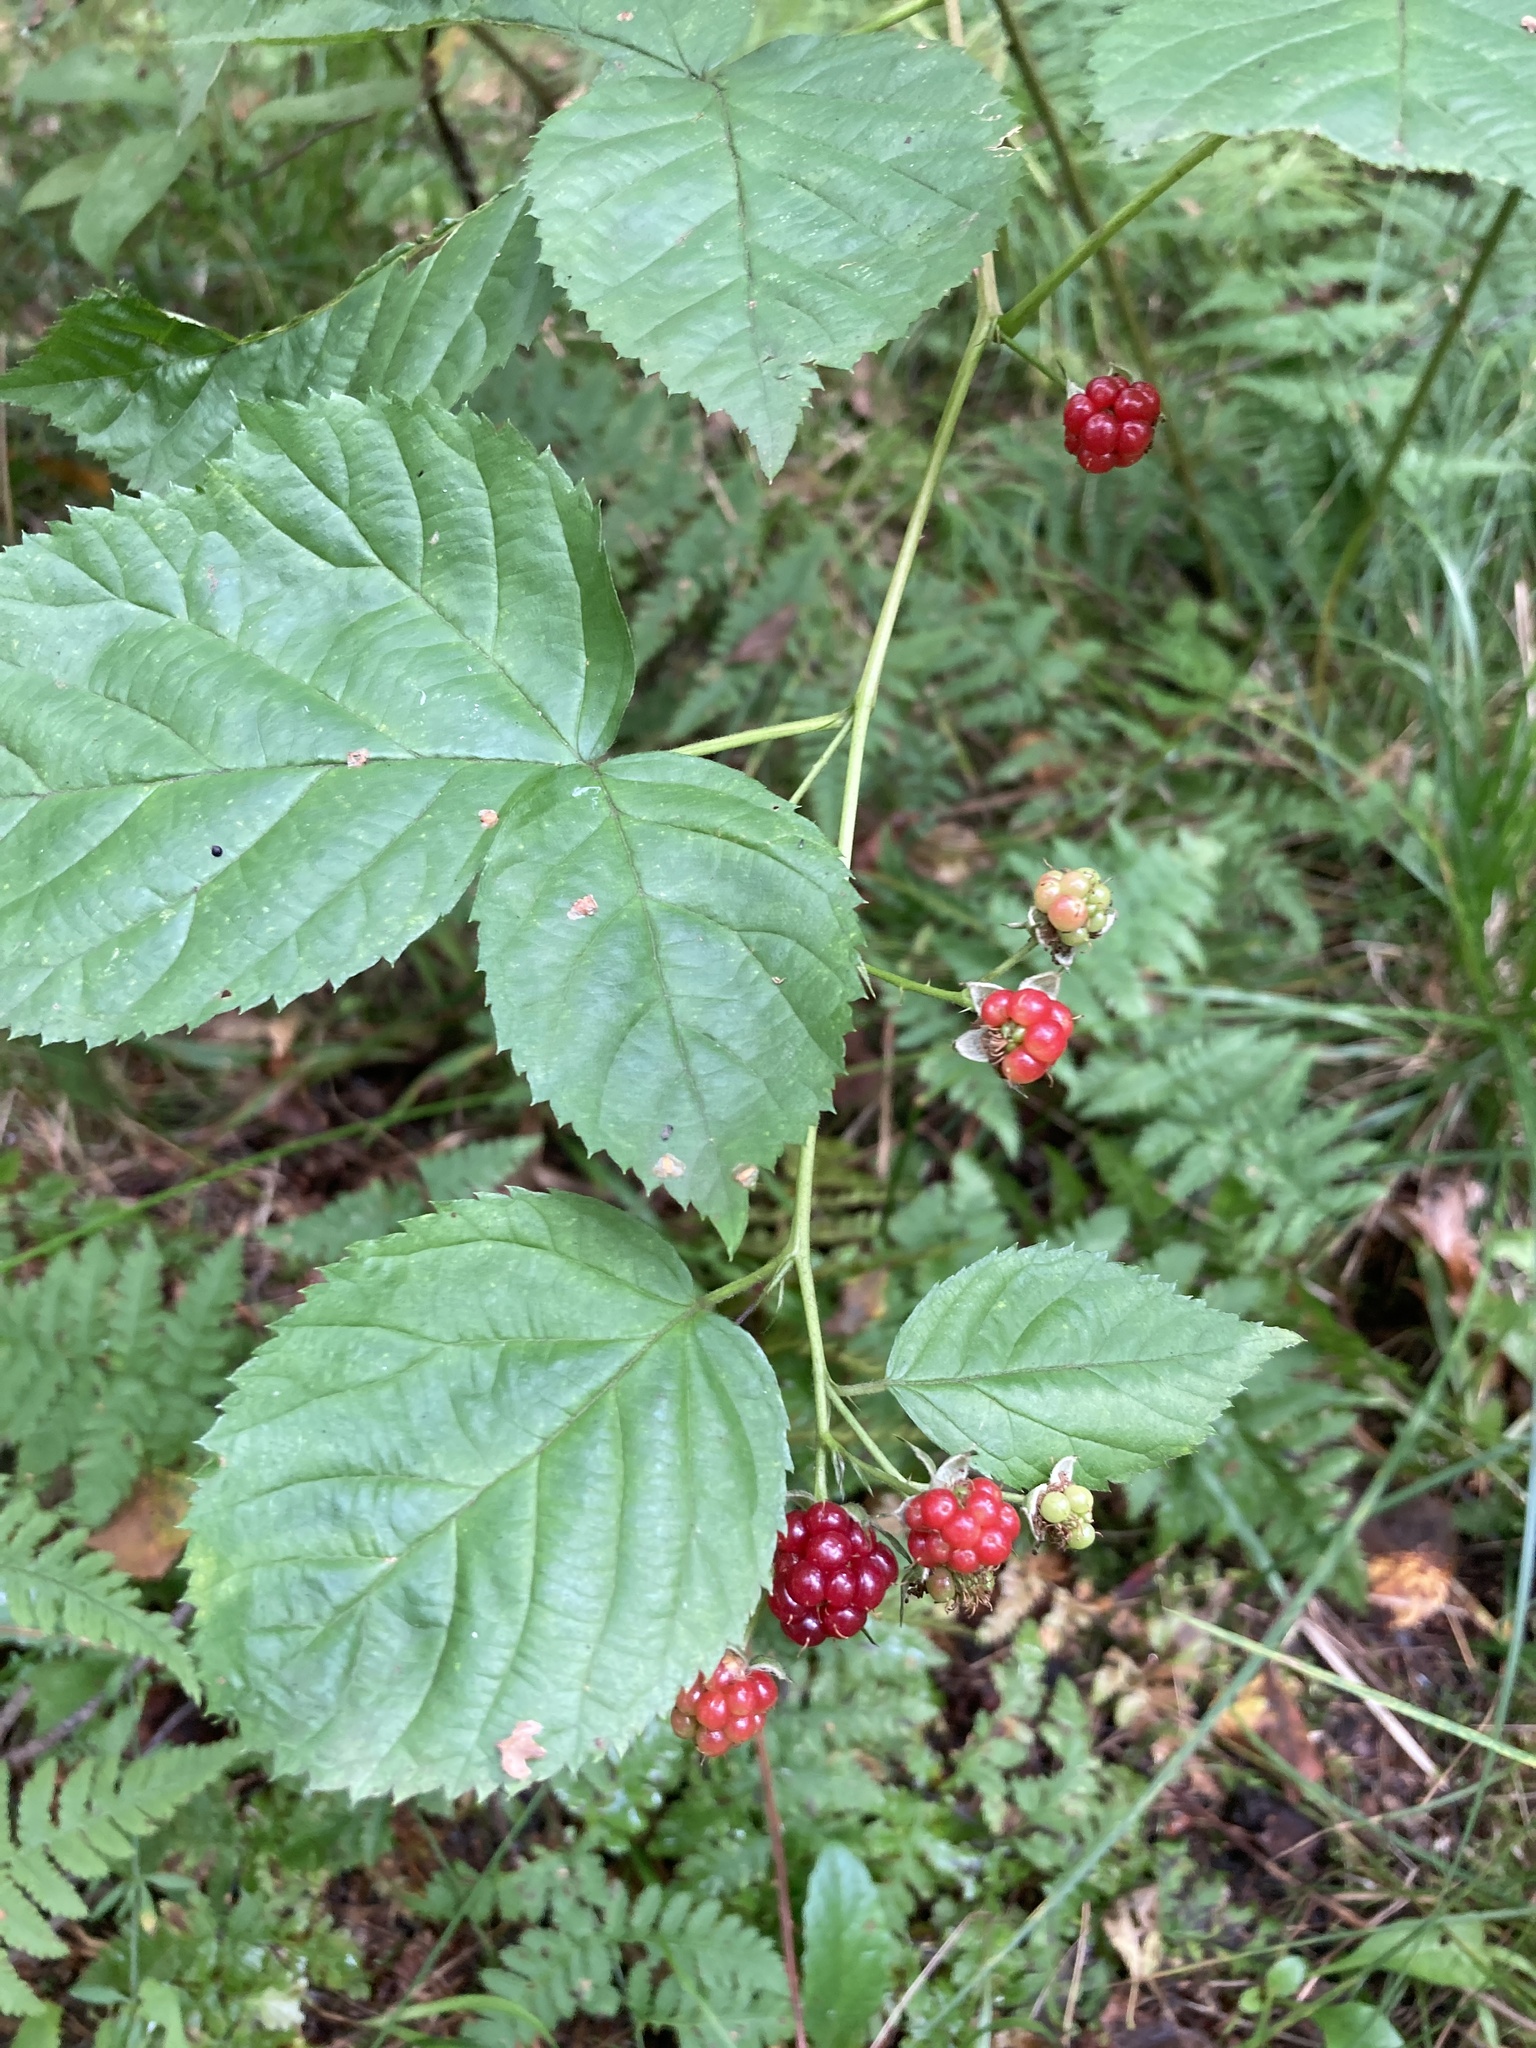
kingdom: Plantae
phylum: Tracheophyta
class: Magnoliopsida
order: Rosales
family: Rosaceae
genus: Rubus
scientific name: Rubus polonicus
